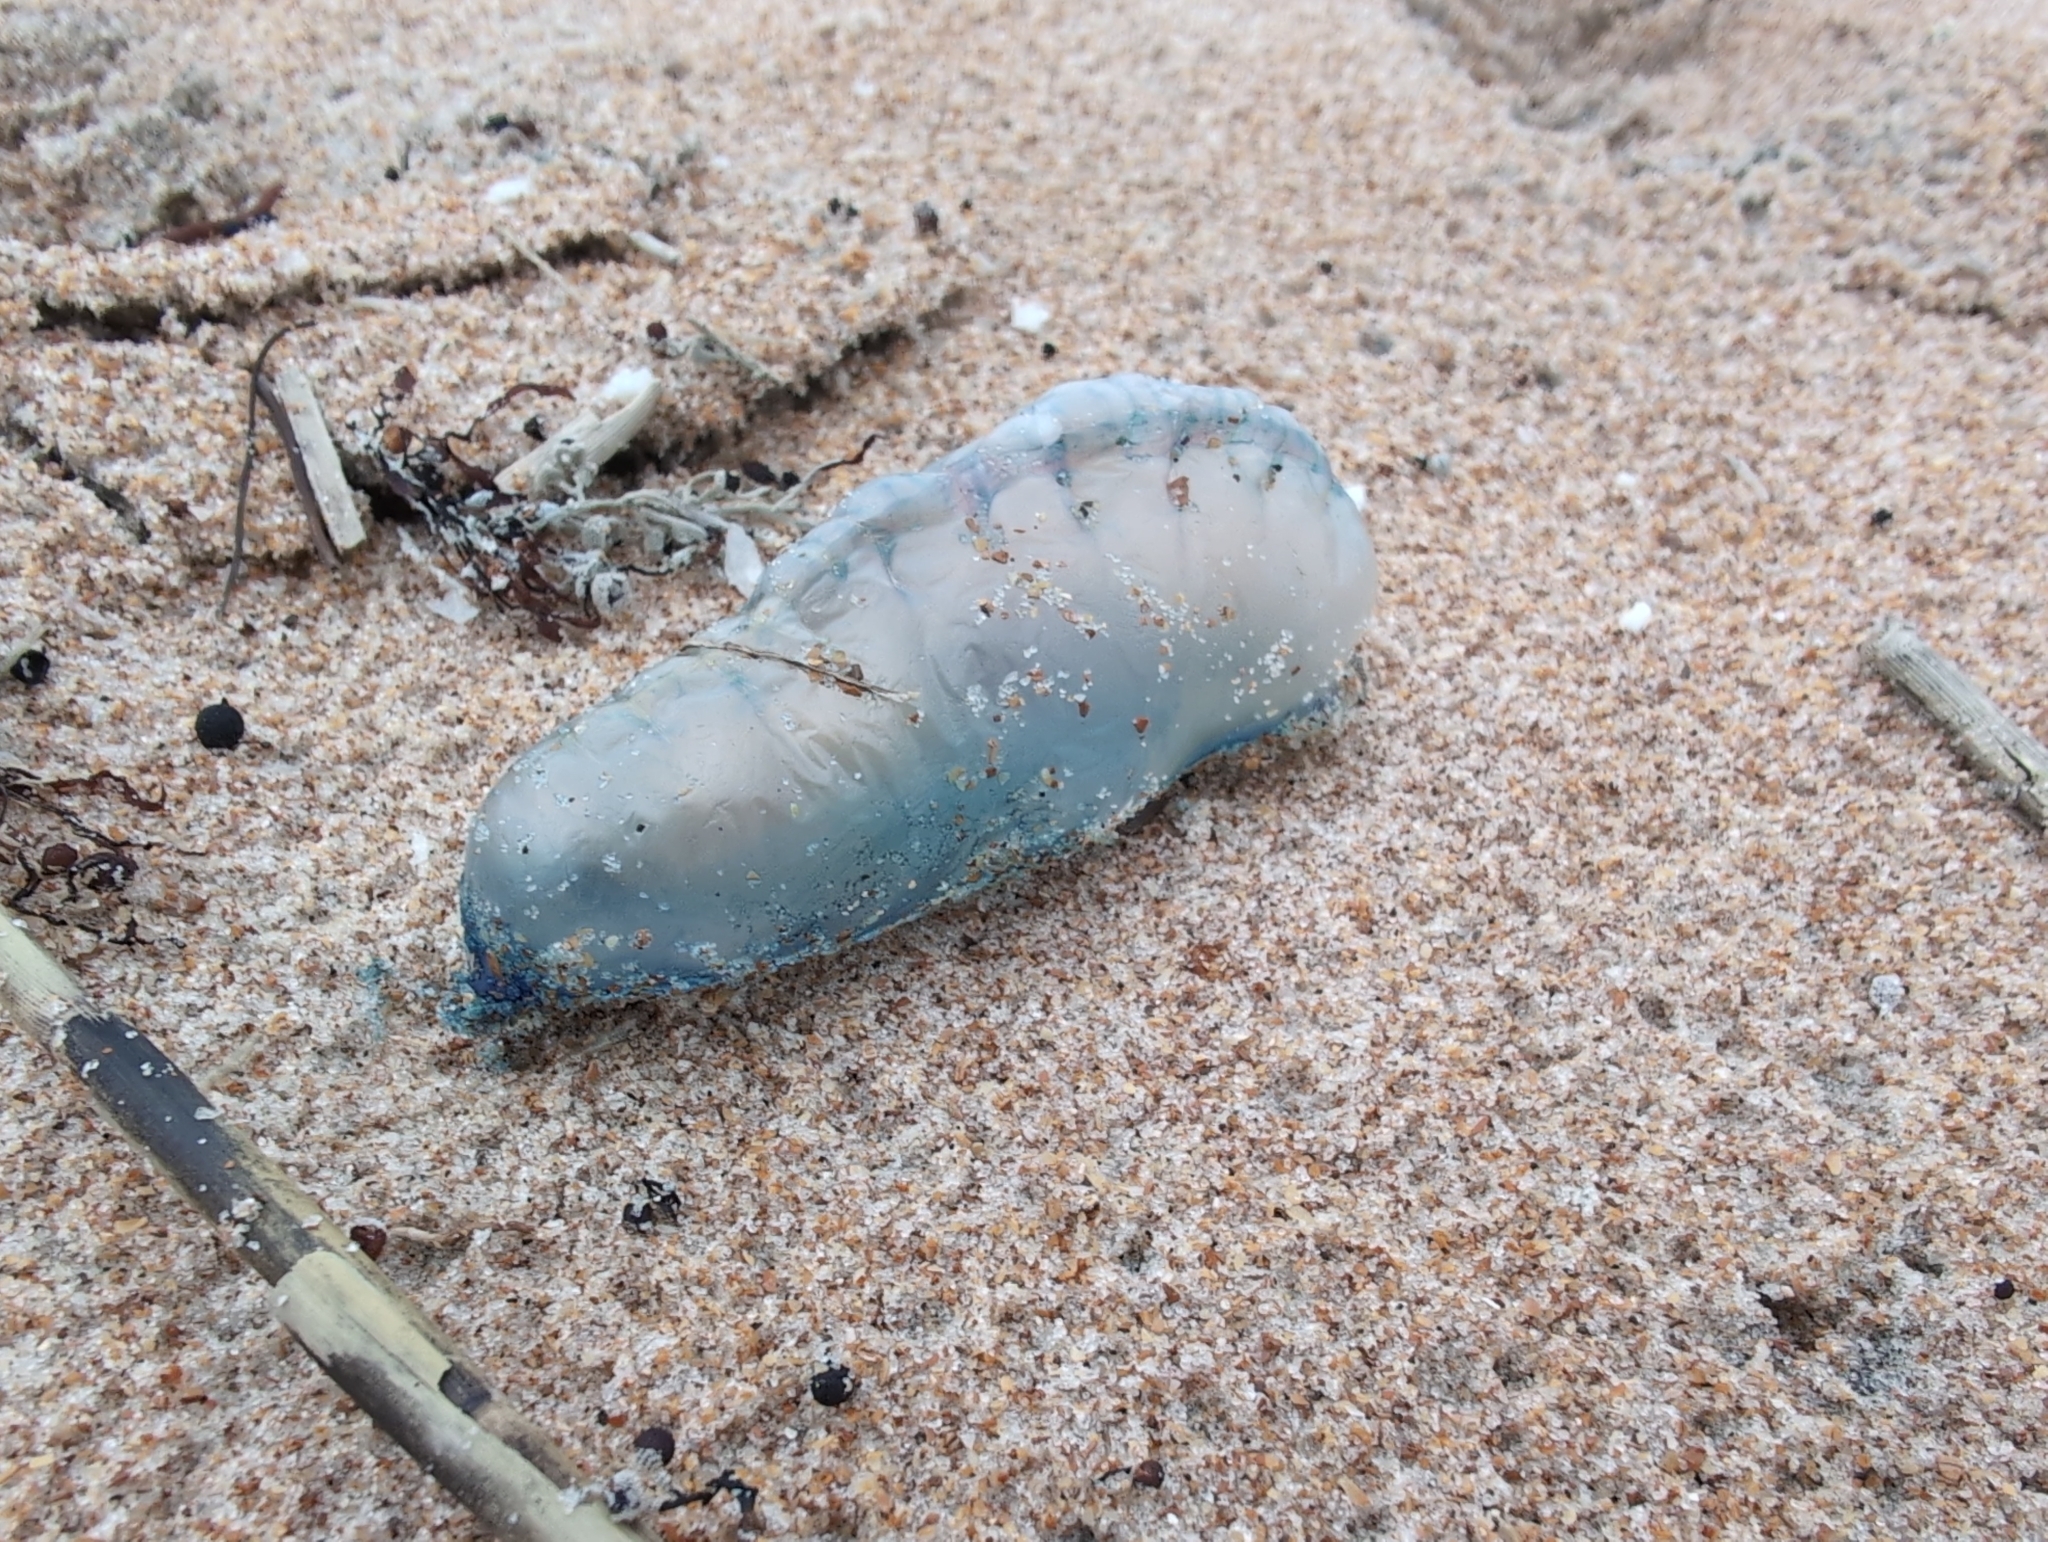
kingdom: Animalia
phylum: Cnidaria
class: Hydrozoa
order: Siphonophorae
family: Physaliidae
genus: Physalia
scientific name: Physalia physalis
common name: Portuguese man-of-war
